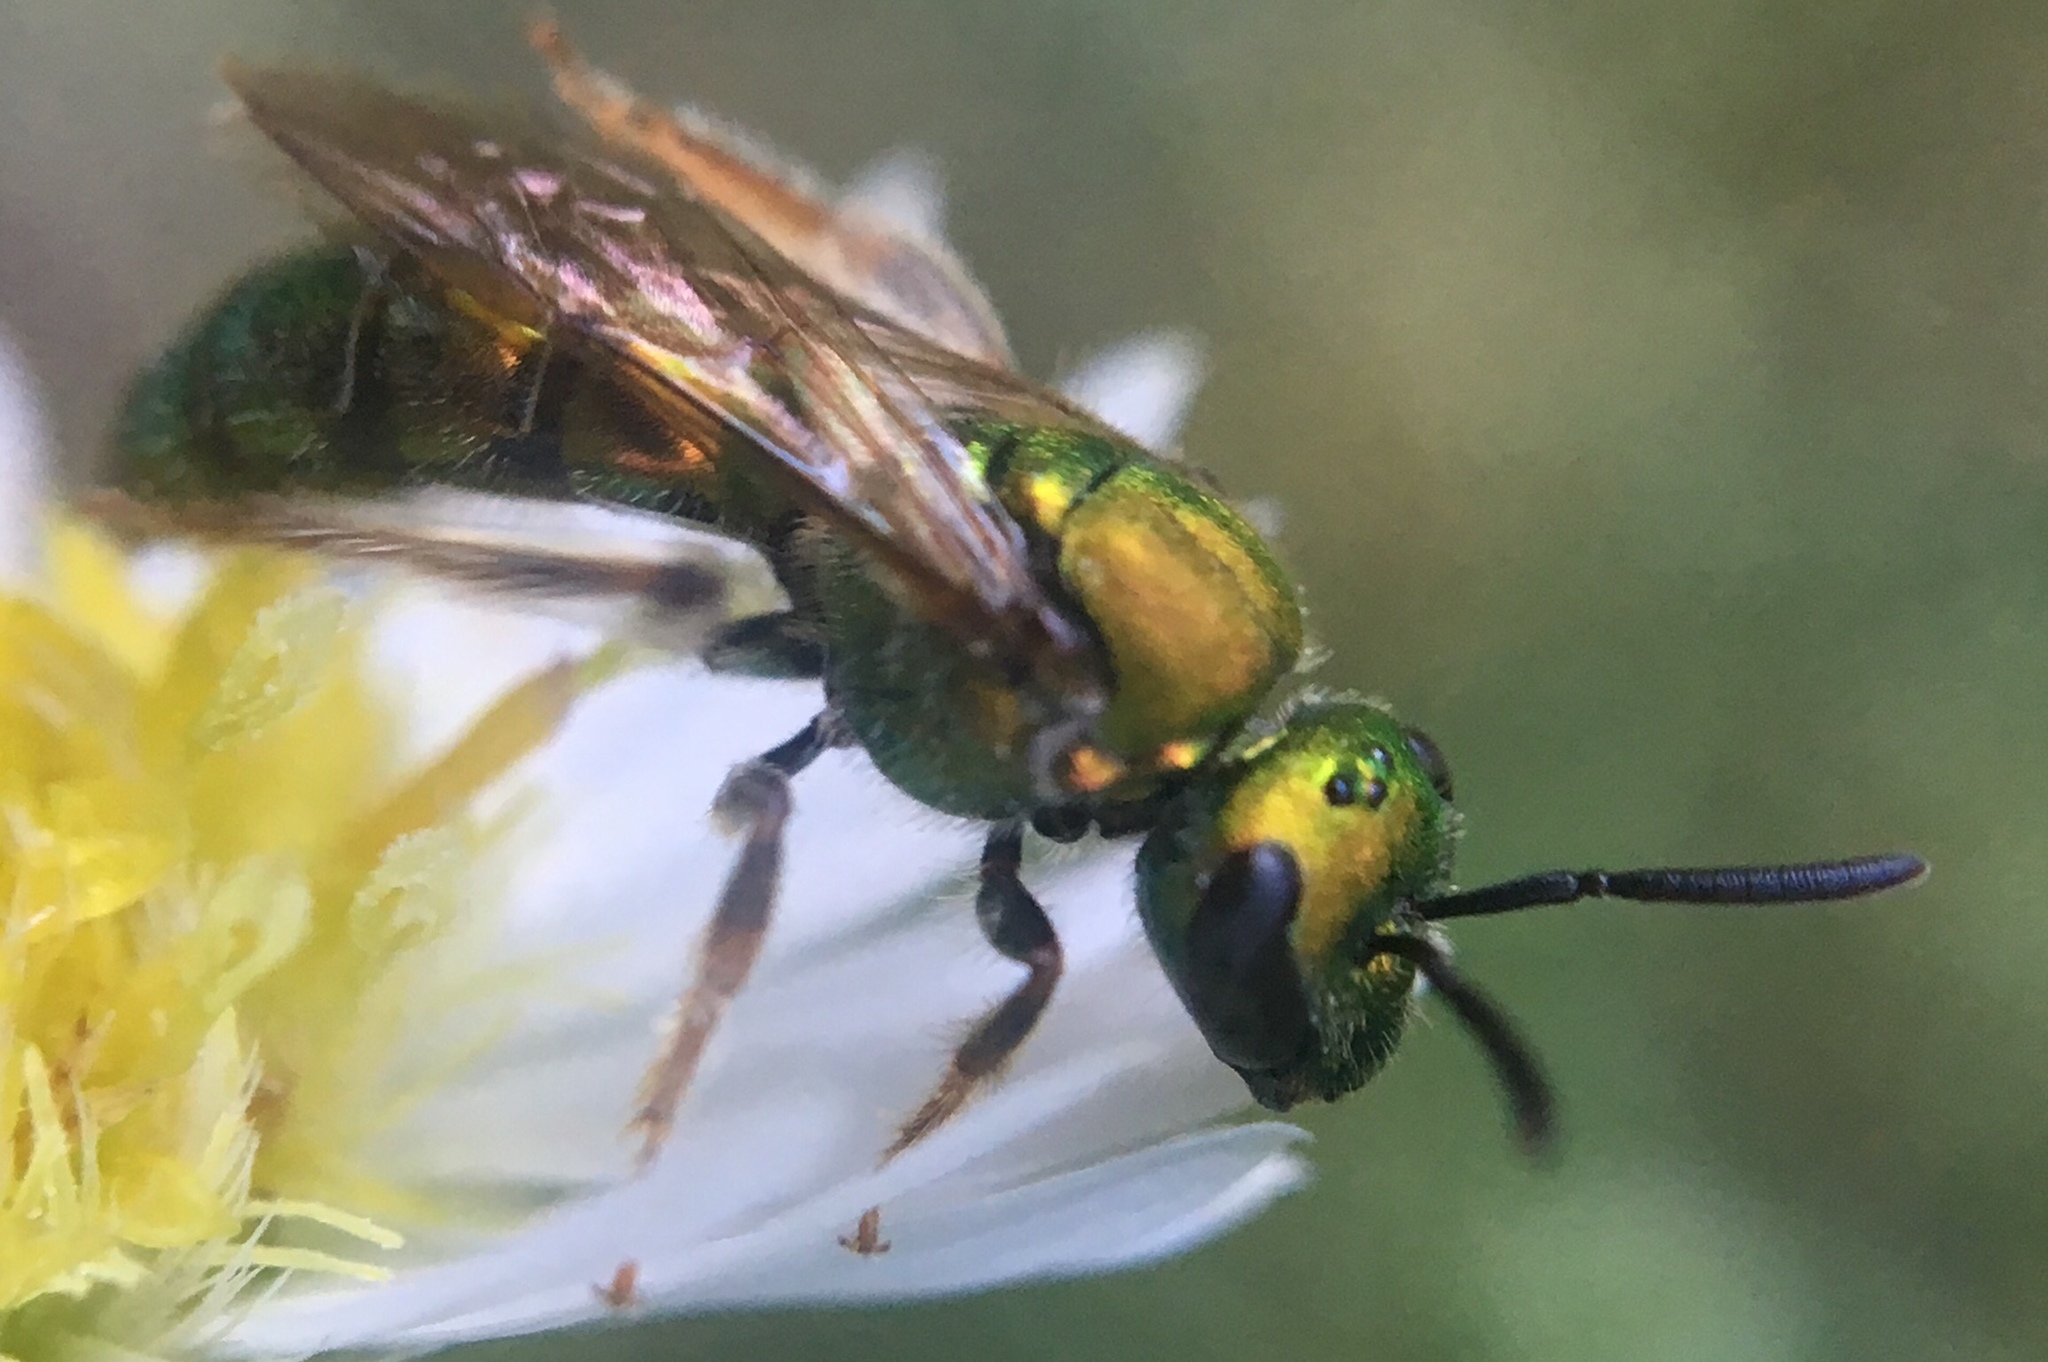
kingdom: Animalia
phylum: Arthropoda
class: Insecta
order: Hymenoptera
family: Halictidae
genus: Augochlora
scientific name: Augochlora pura
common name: Pure green sweat bee
